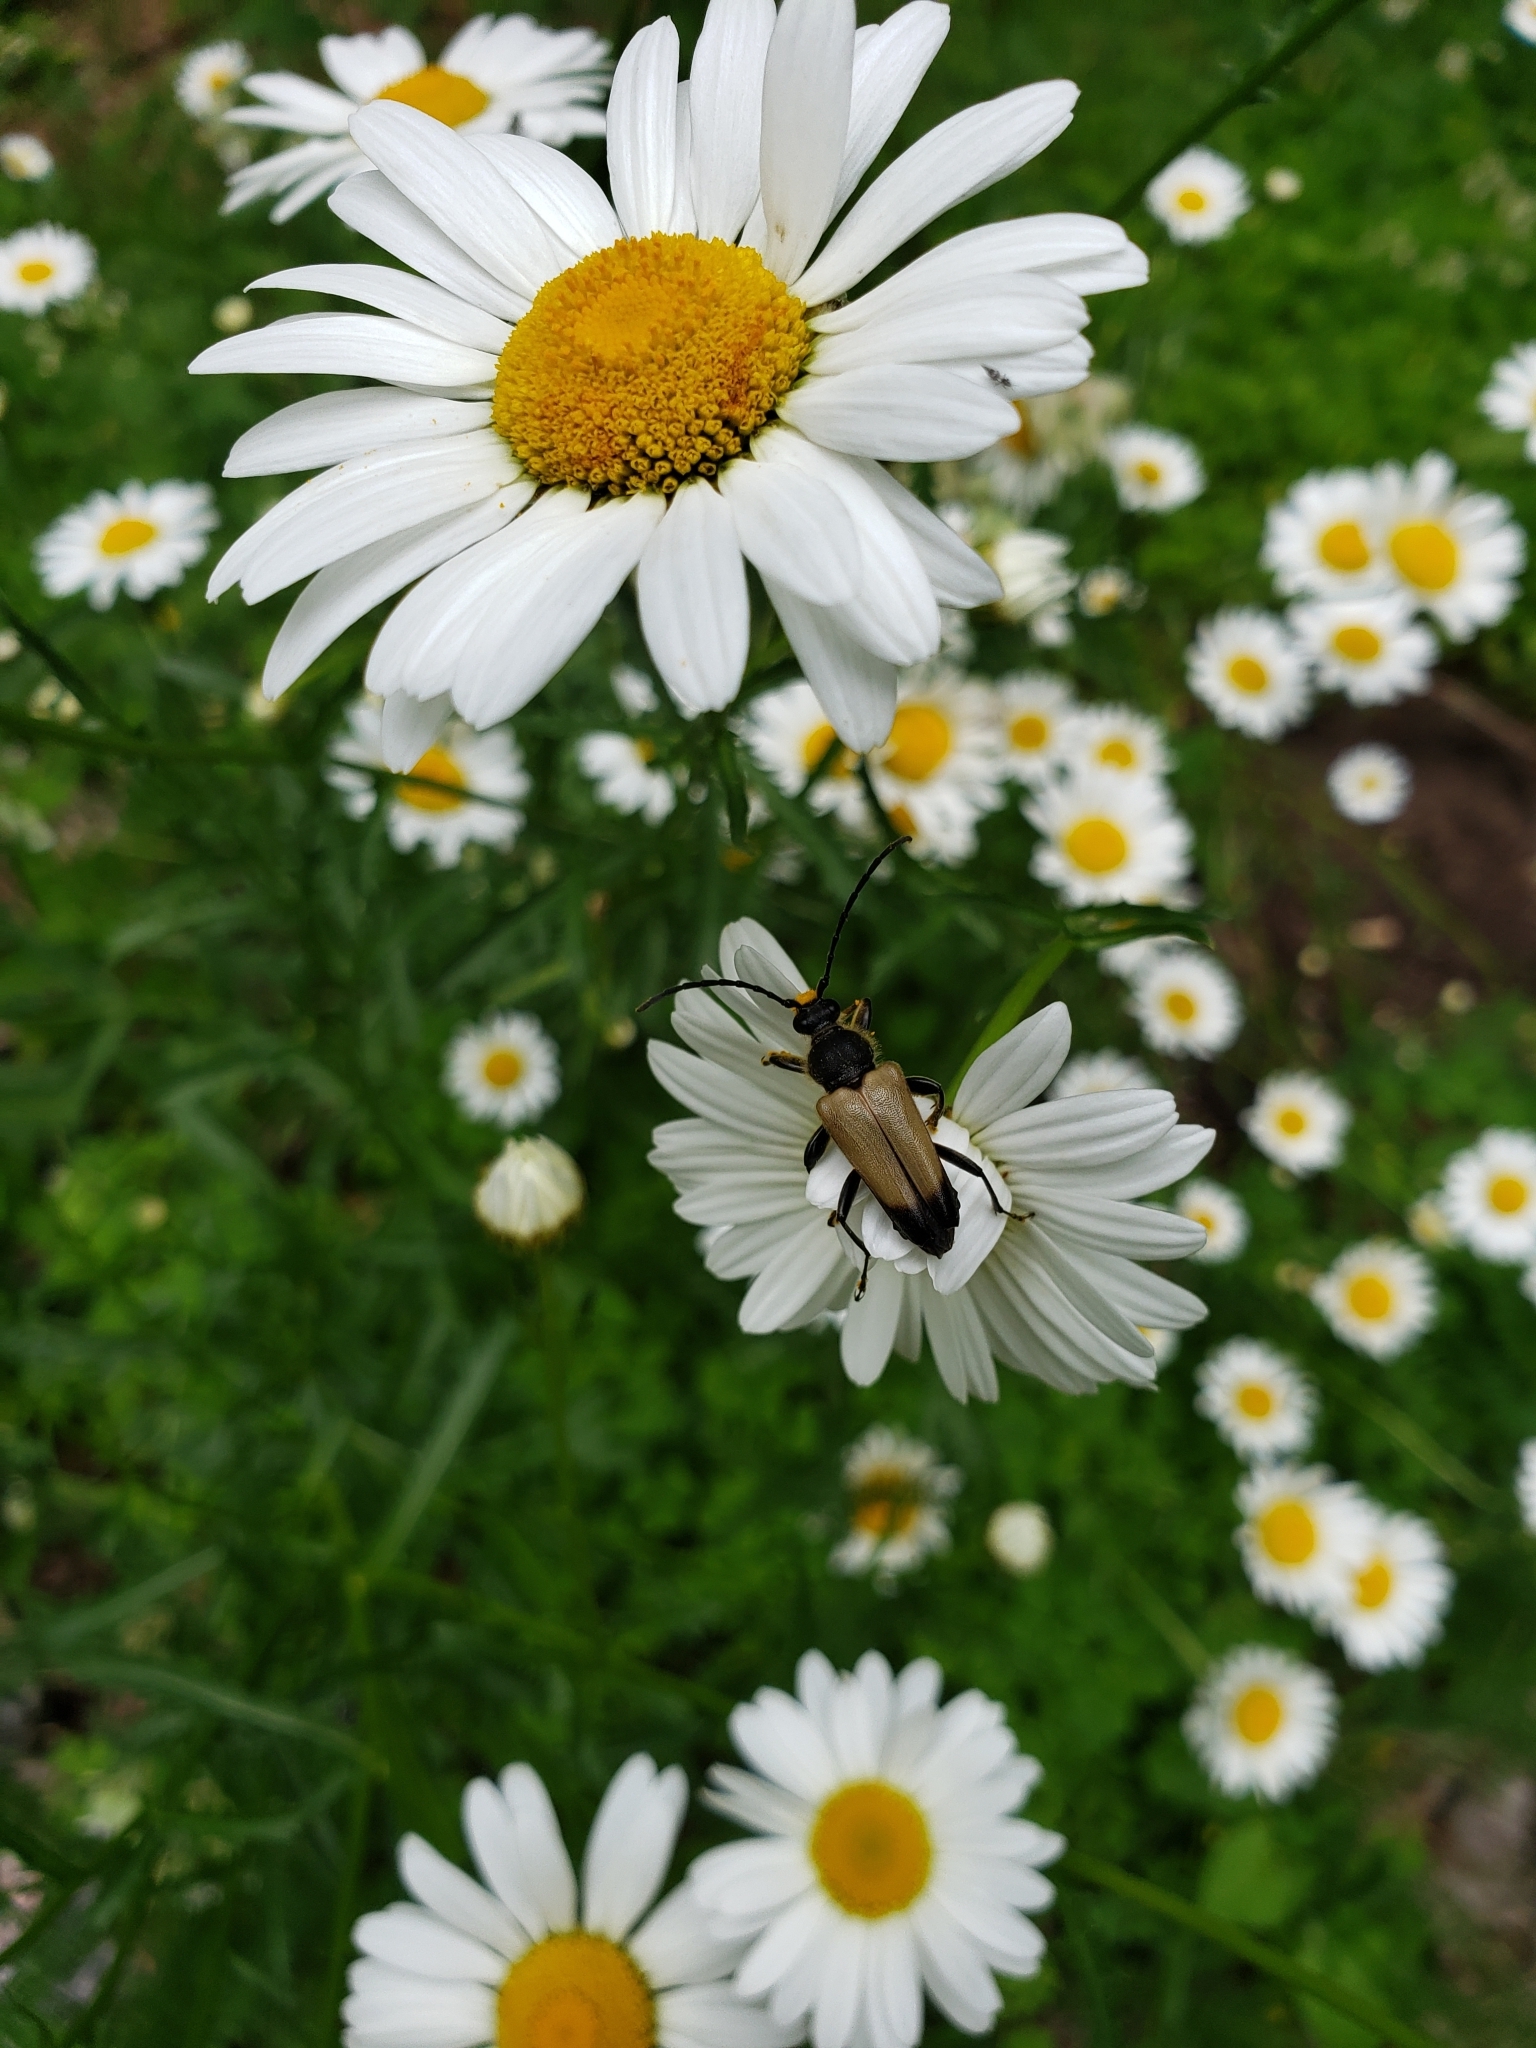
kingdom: Animalia
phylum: Arthropoda
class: Insecta
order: Coleoptera
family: Cerambycidae
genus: Trigonarthris
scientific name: Trigonarthris proxima
